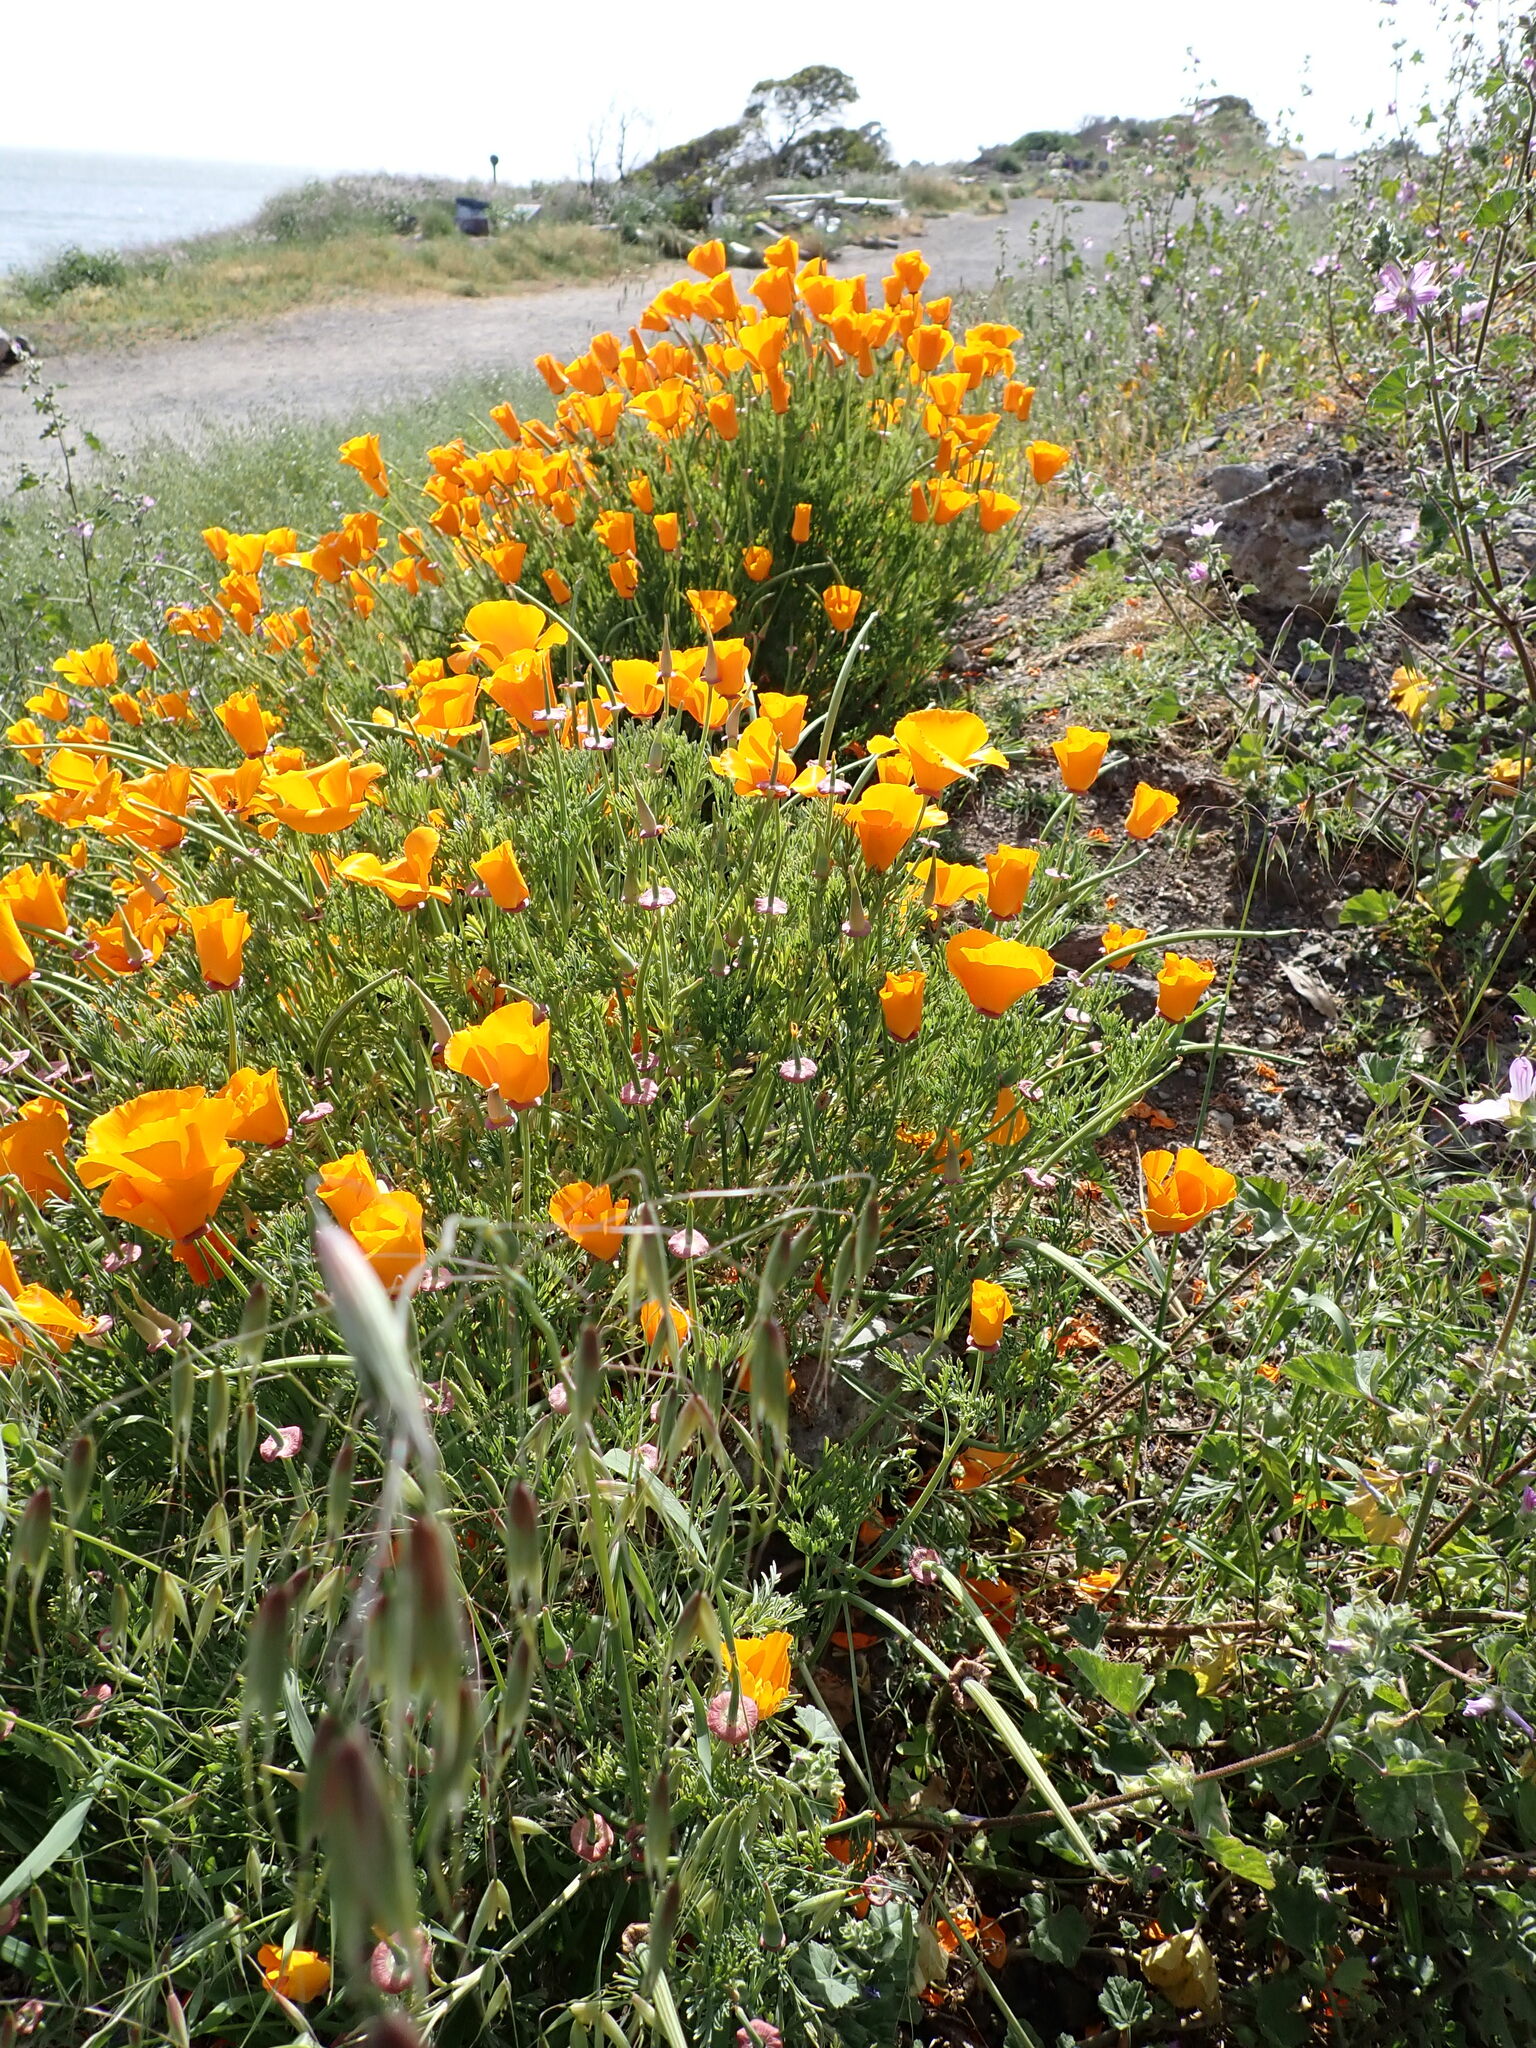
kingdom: Plantae
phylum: Tracheophyta
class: Magnoliopsida
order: Ranunculales
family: Papaveraceae
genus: Eschscholzia
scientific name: Eschscholzia californica
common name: California poppy
